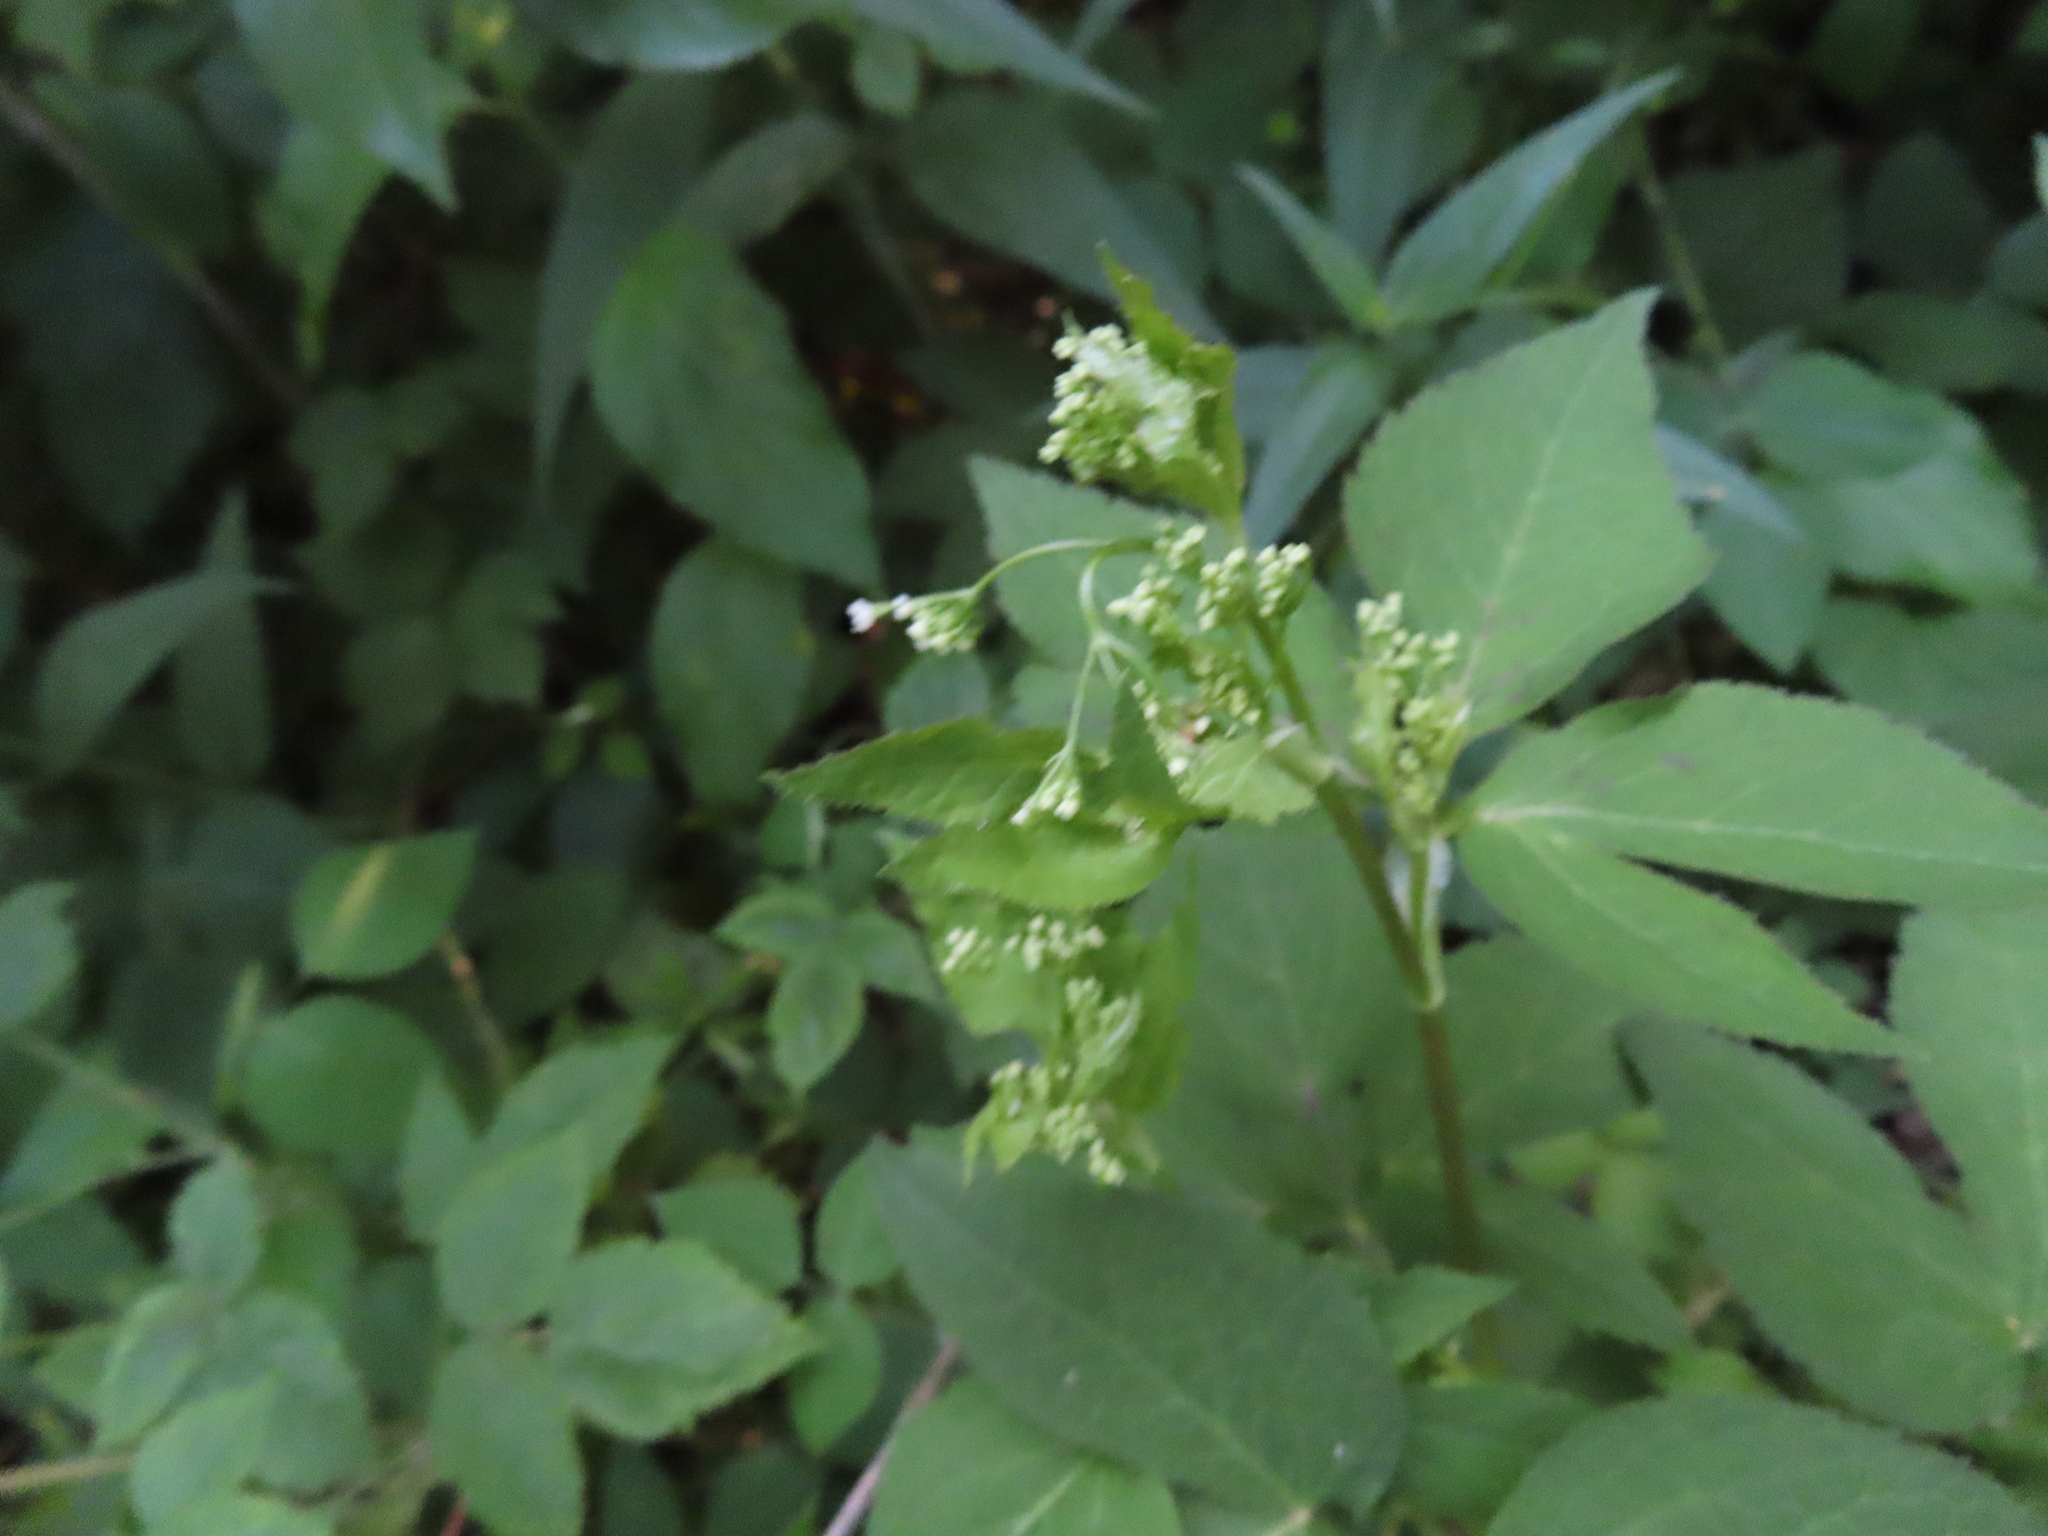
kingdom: Plantae
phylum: Tracheophyta
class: Magnoliopsida
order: Apiales
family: Apiaceae
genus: Cryptotaenia
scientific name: Cryptotaenia canadensis
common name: Honewort
